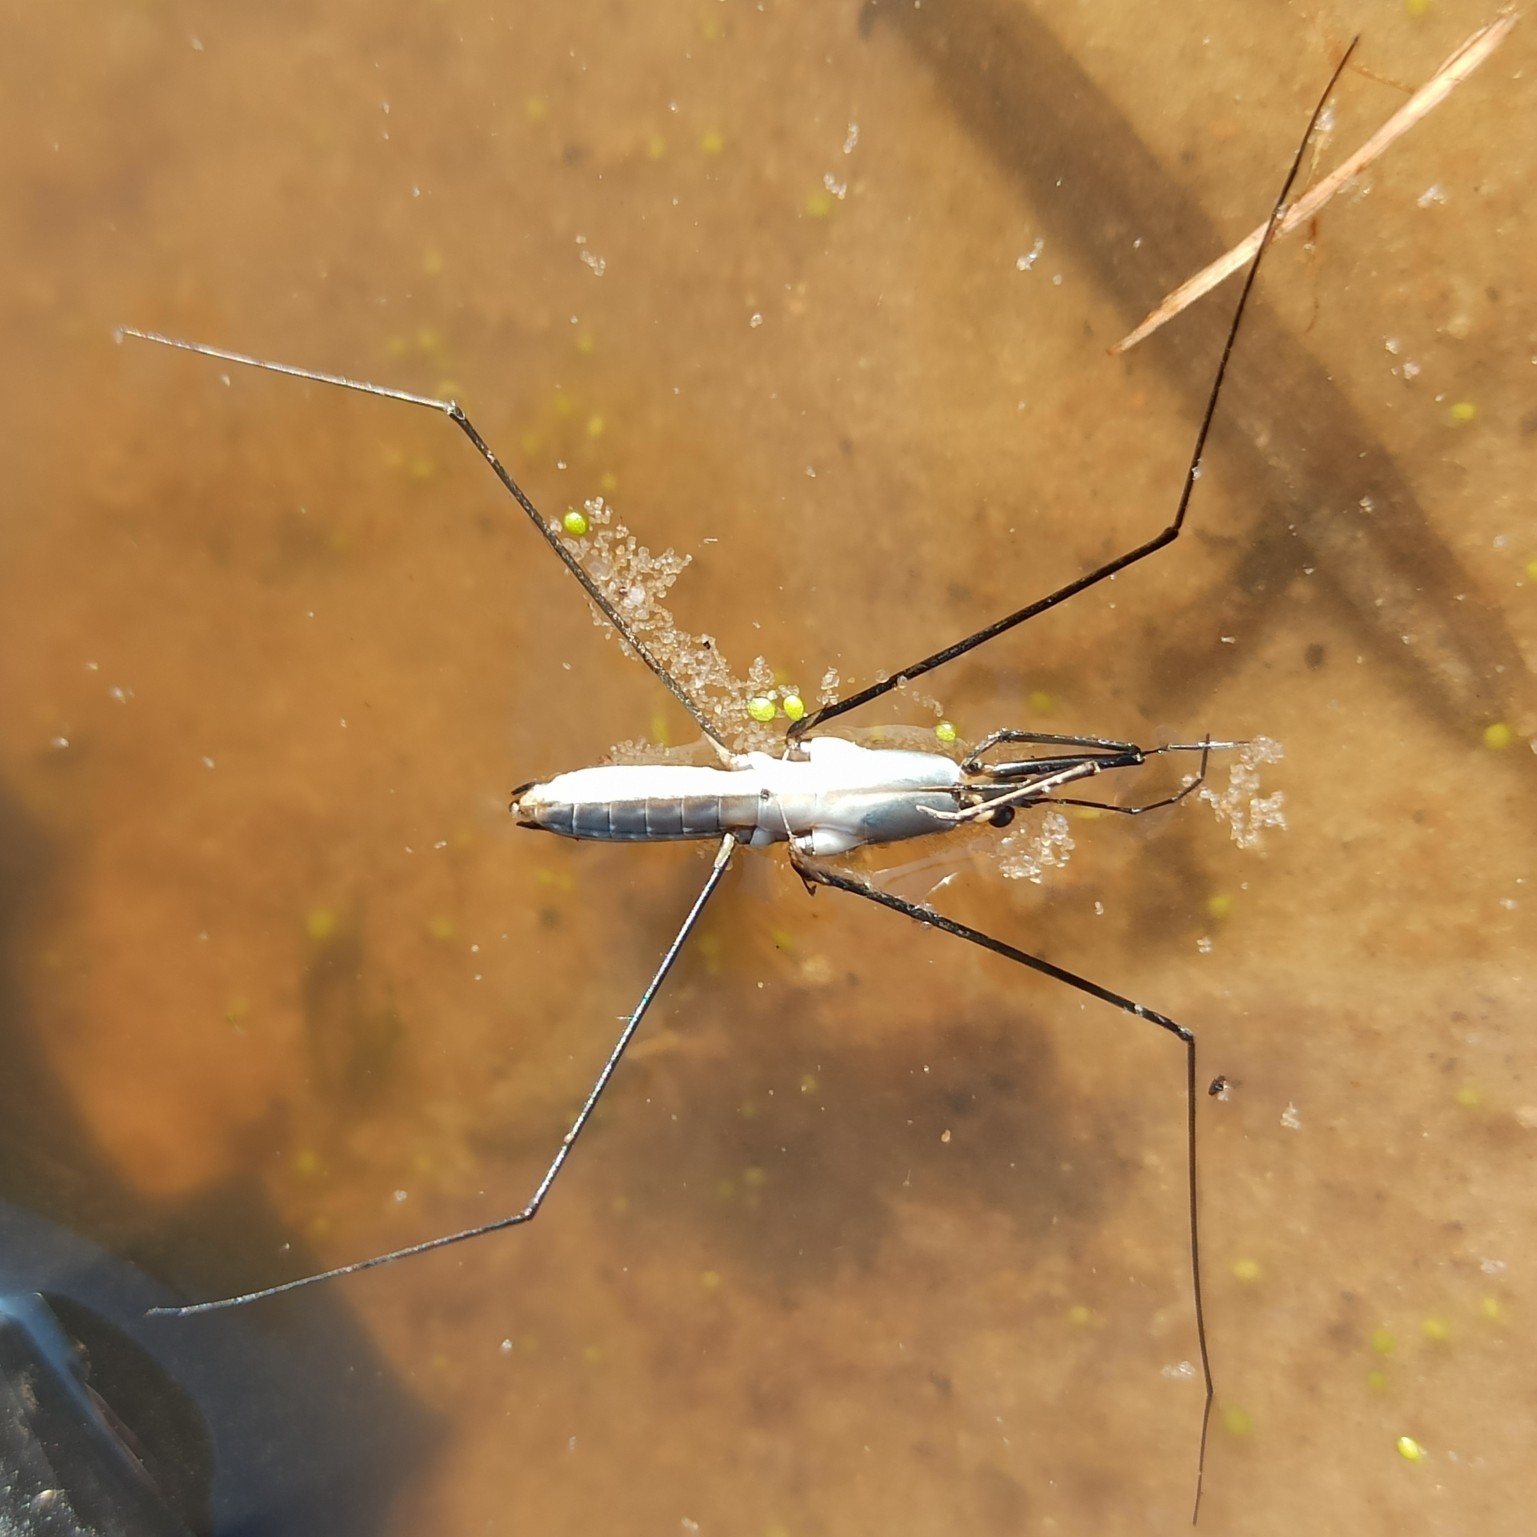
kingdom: Animalia
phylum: Arthropoda
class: Insecta
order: Hemiptera
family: Gerridae
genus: Limnoporus
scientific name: Limnoporus rufoscutellatus
